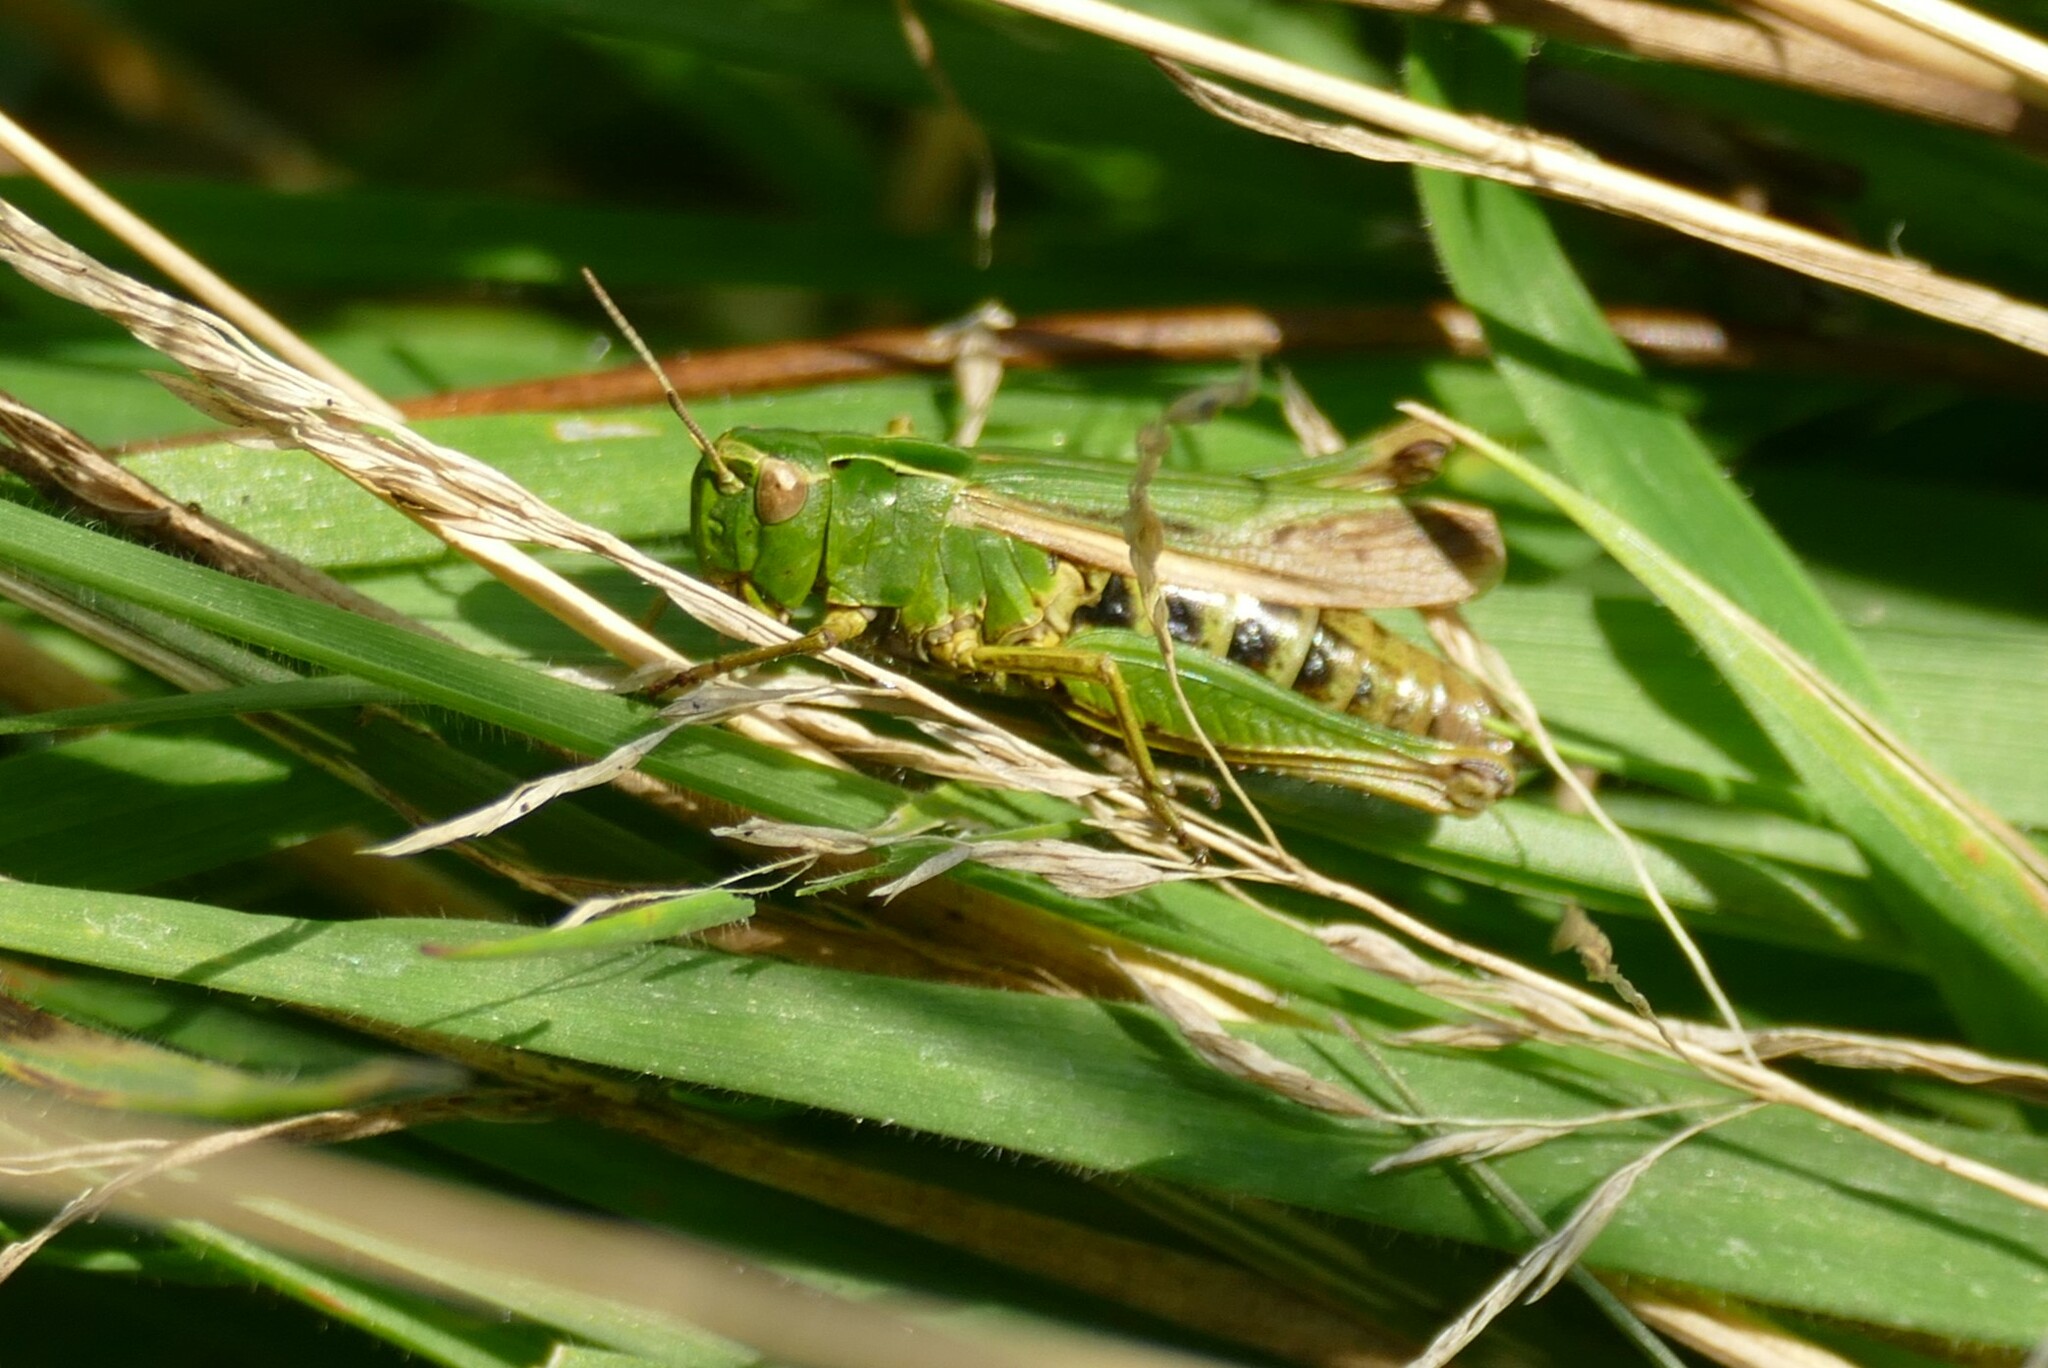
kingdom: Animalia
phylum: Arthropoda
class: Insecta
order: Orthoptera
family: Acrididae
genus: Omocestus
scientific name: Omocestus viridulus
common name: Common green grasshopper
